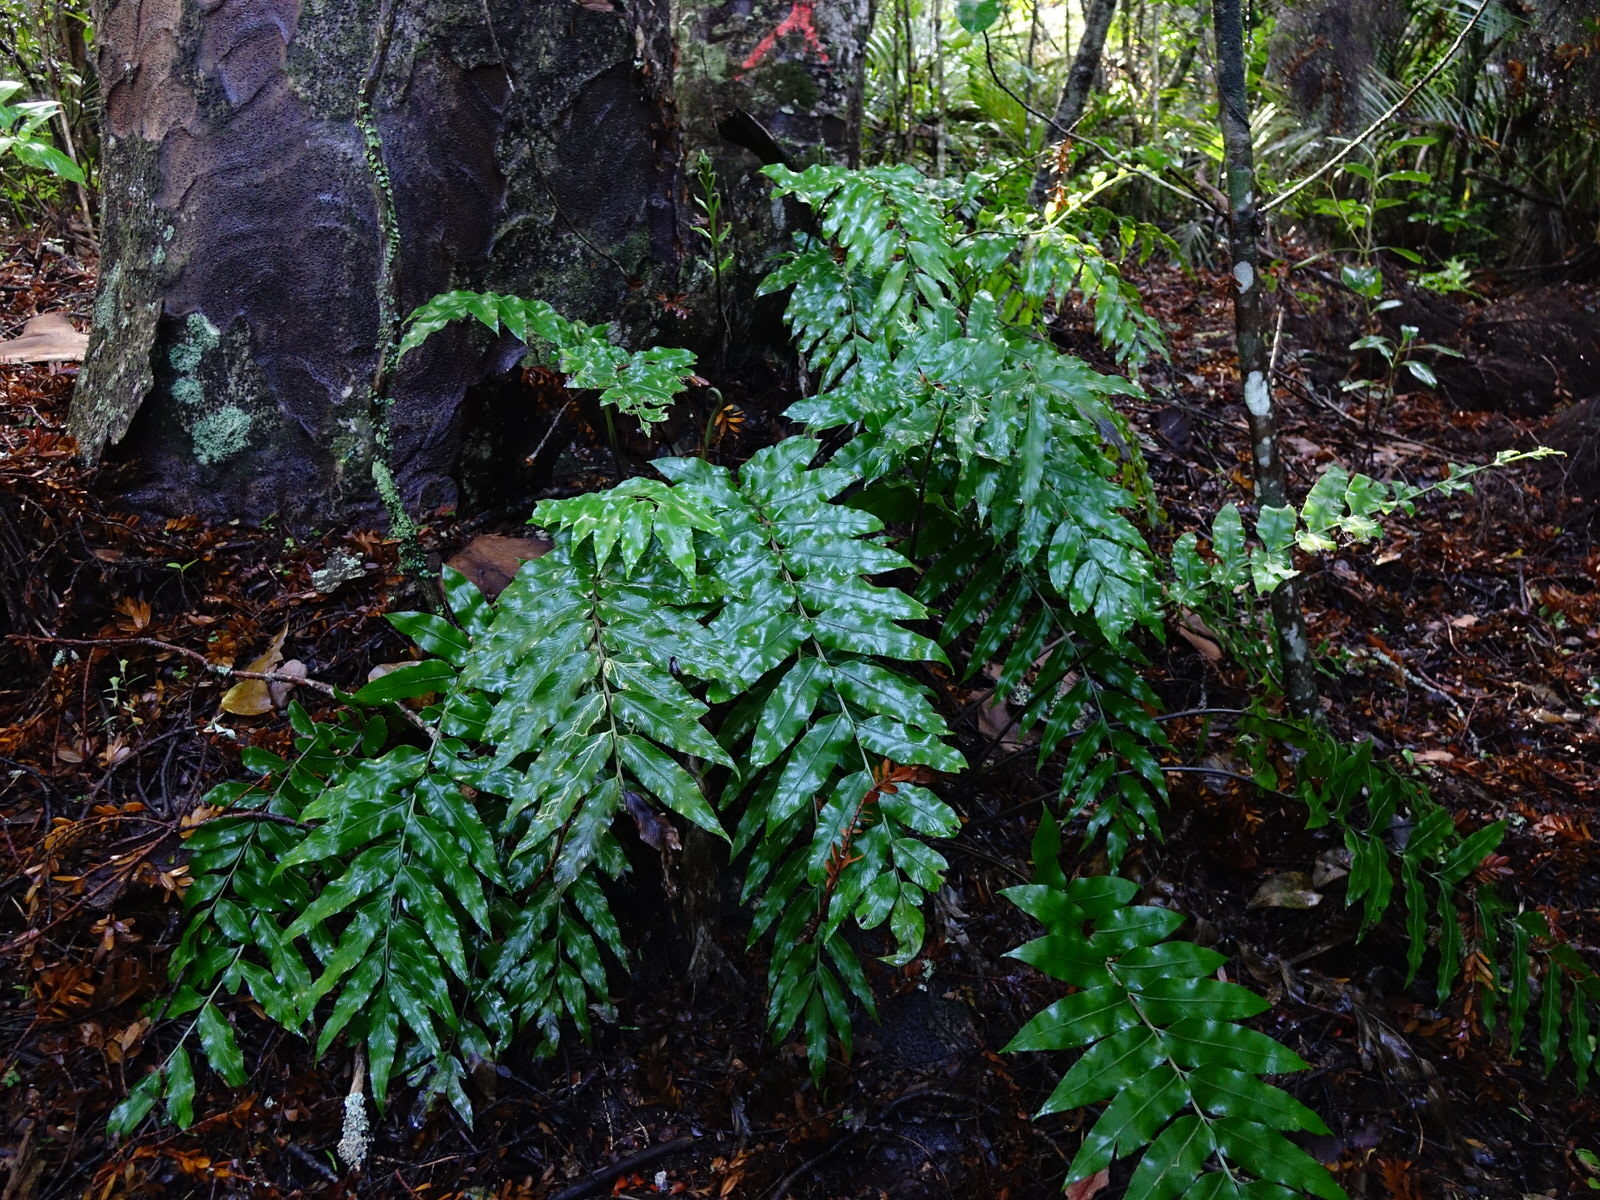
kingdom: Plantae
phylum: Tracheophyta
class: Polypodiopsida
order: Polypodiales
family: Aspleniaceae
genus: Asplenium
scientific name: Asplenium oblongifolium
